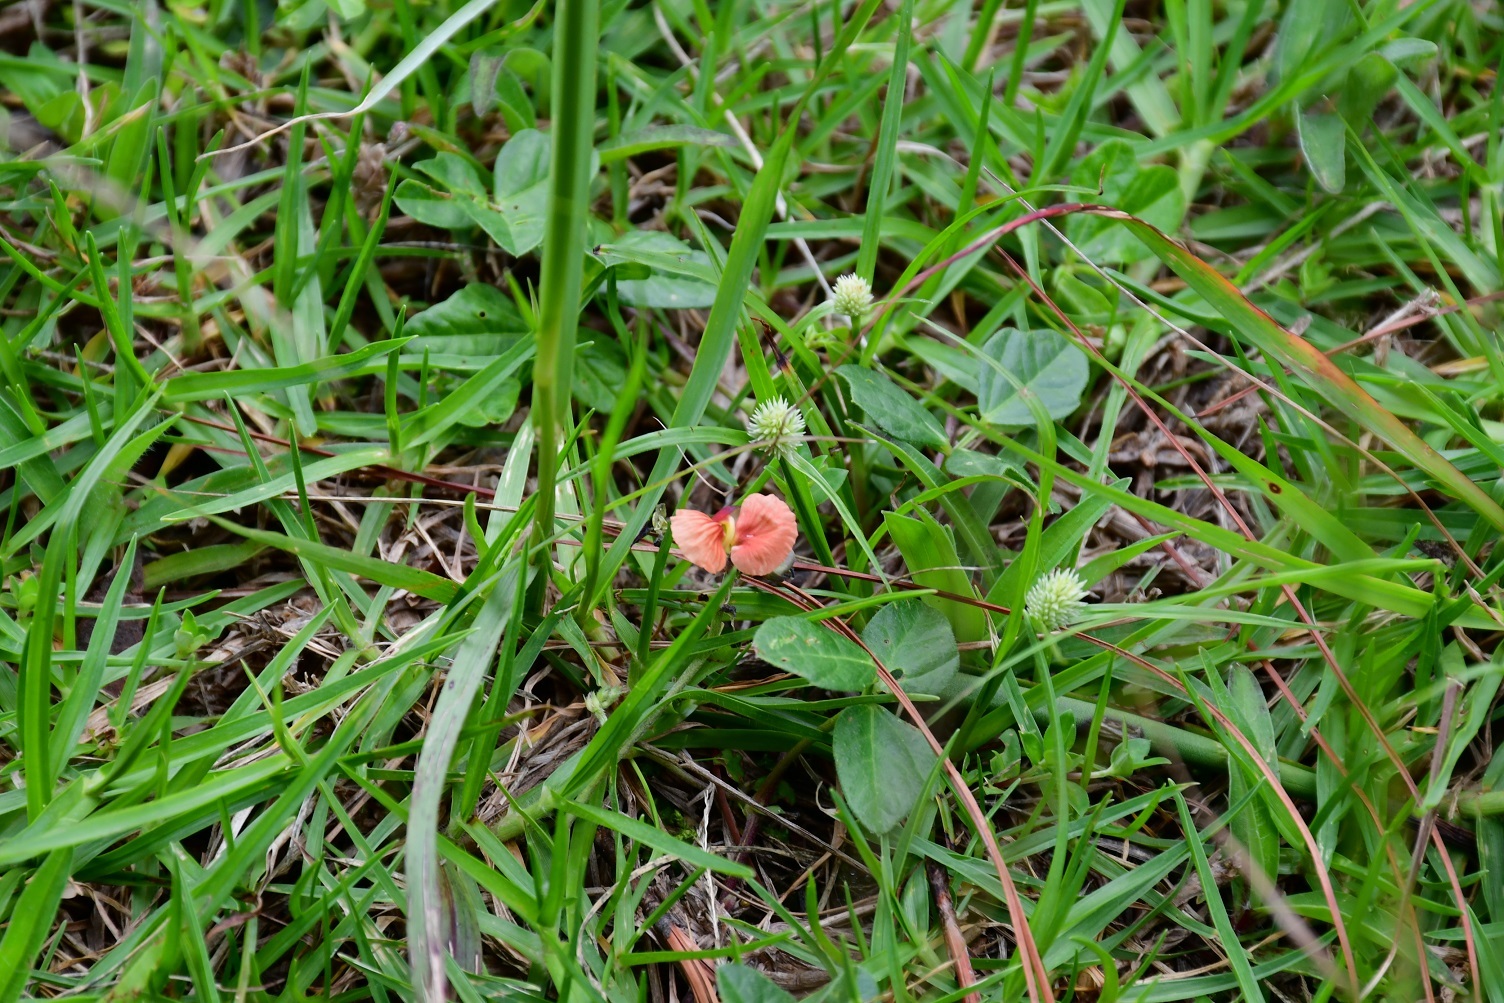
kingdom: Plantae
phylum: Tracheophyta
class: Magnoliopsida
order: Fabales
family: Fabaceae
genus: Macroptilium
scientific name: Macroptilium gibbosifolium
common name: Variableleaf bushbean
